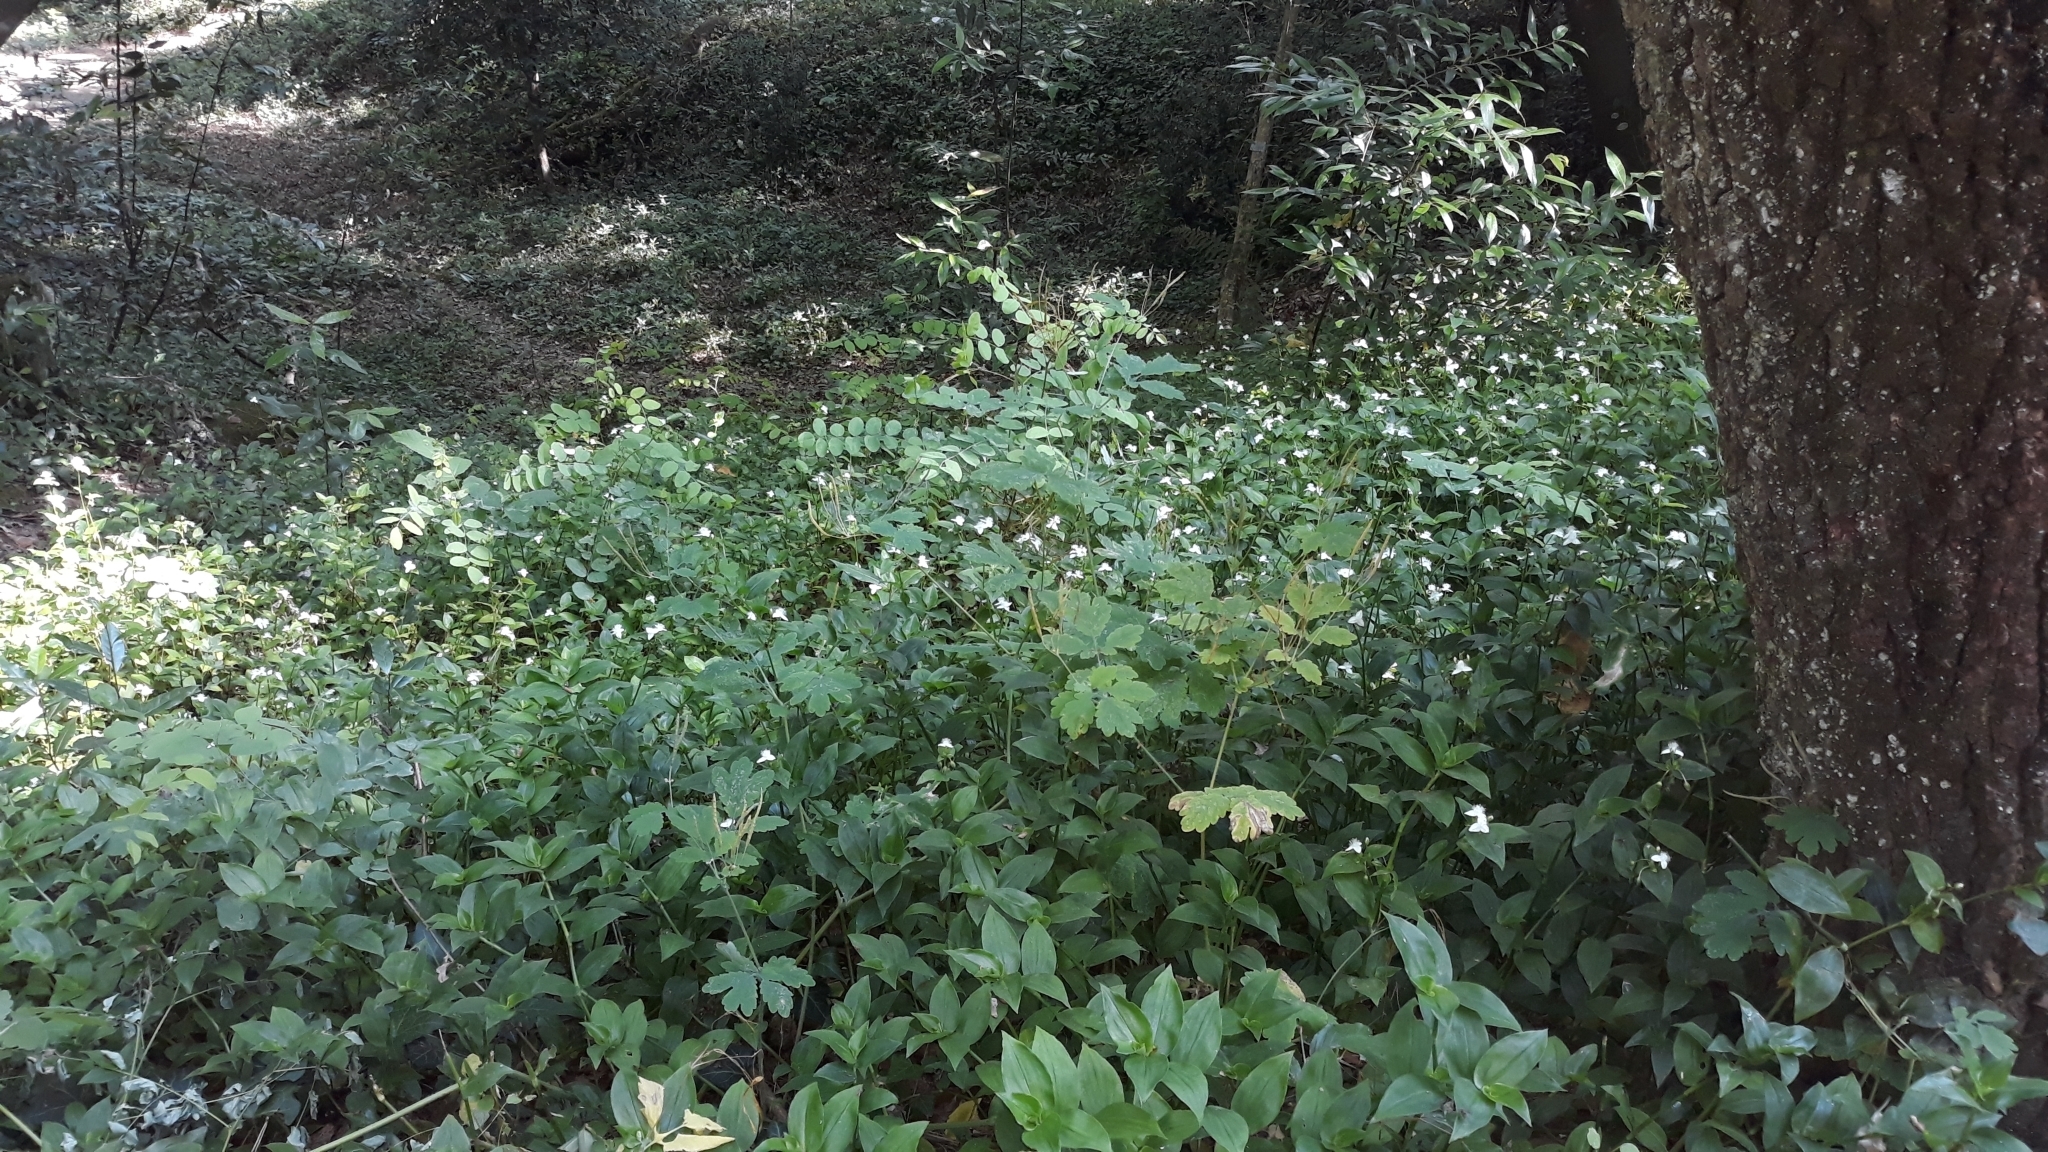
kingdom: Plantae
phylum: Tracheophyta
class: Liliopsida
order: Commelinales
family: Commelinaceae
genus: Tradescantia
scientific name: Tradescantia fluminensis
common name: Wandering-jew
